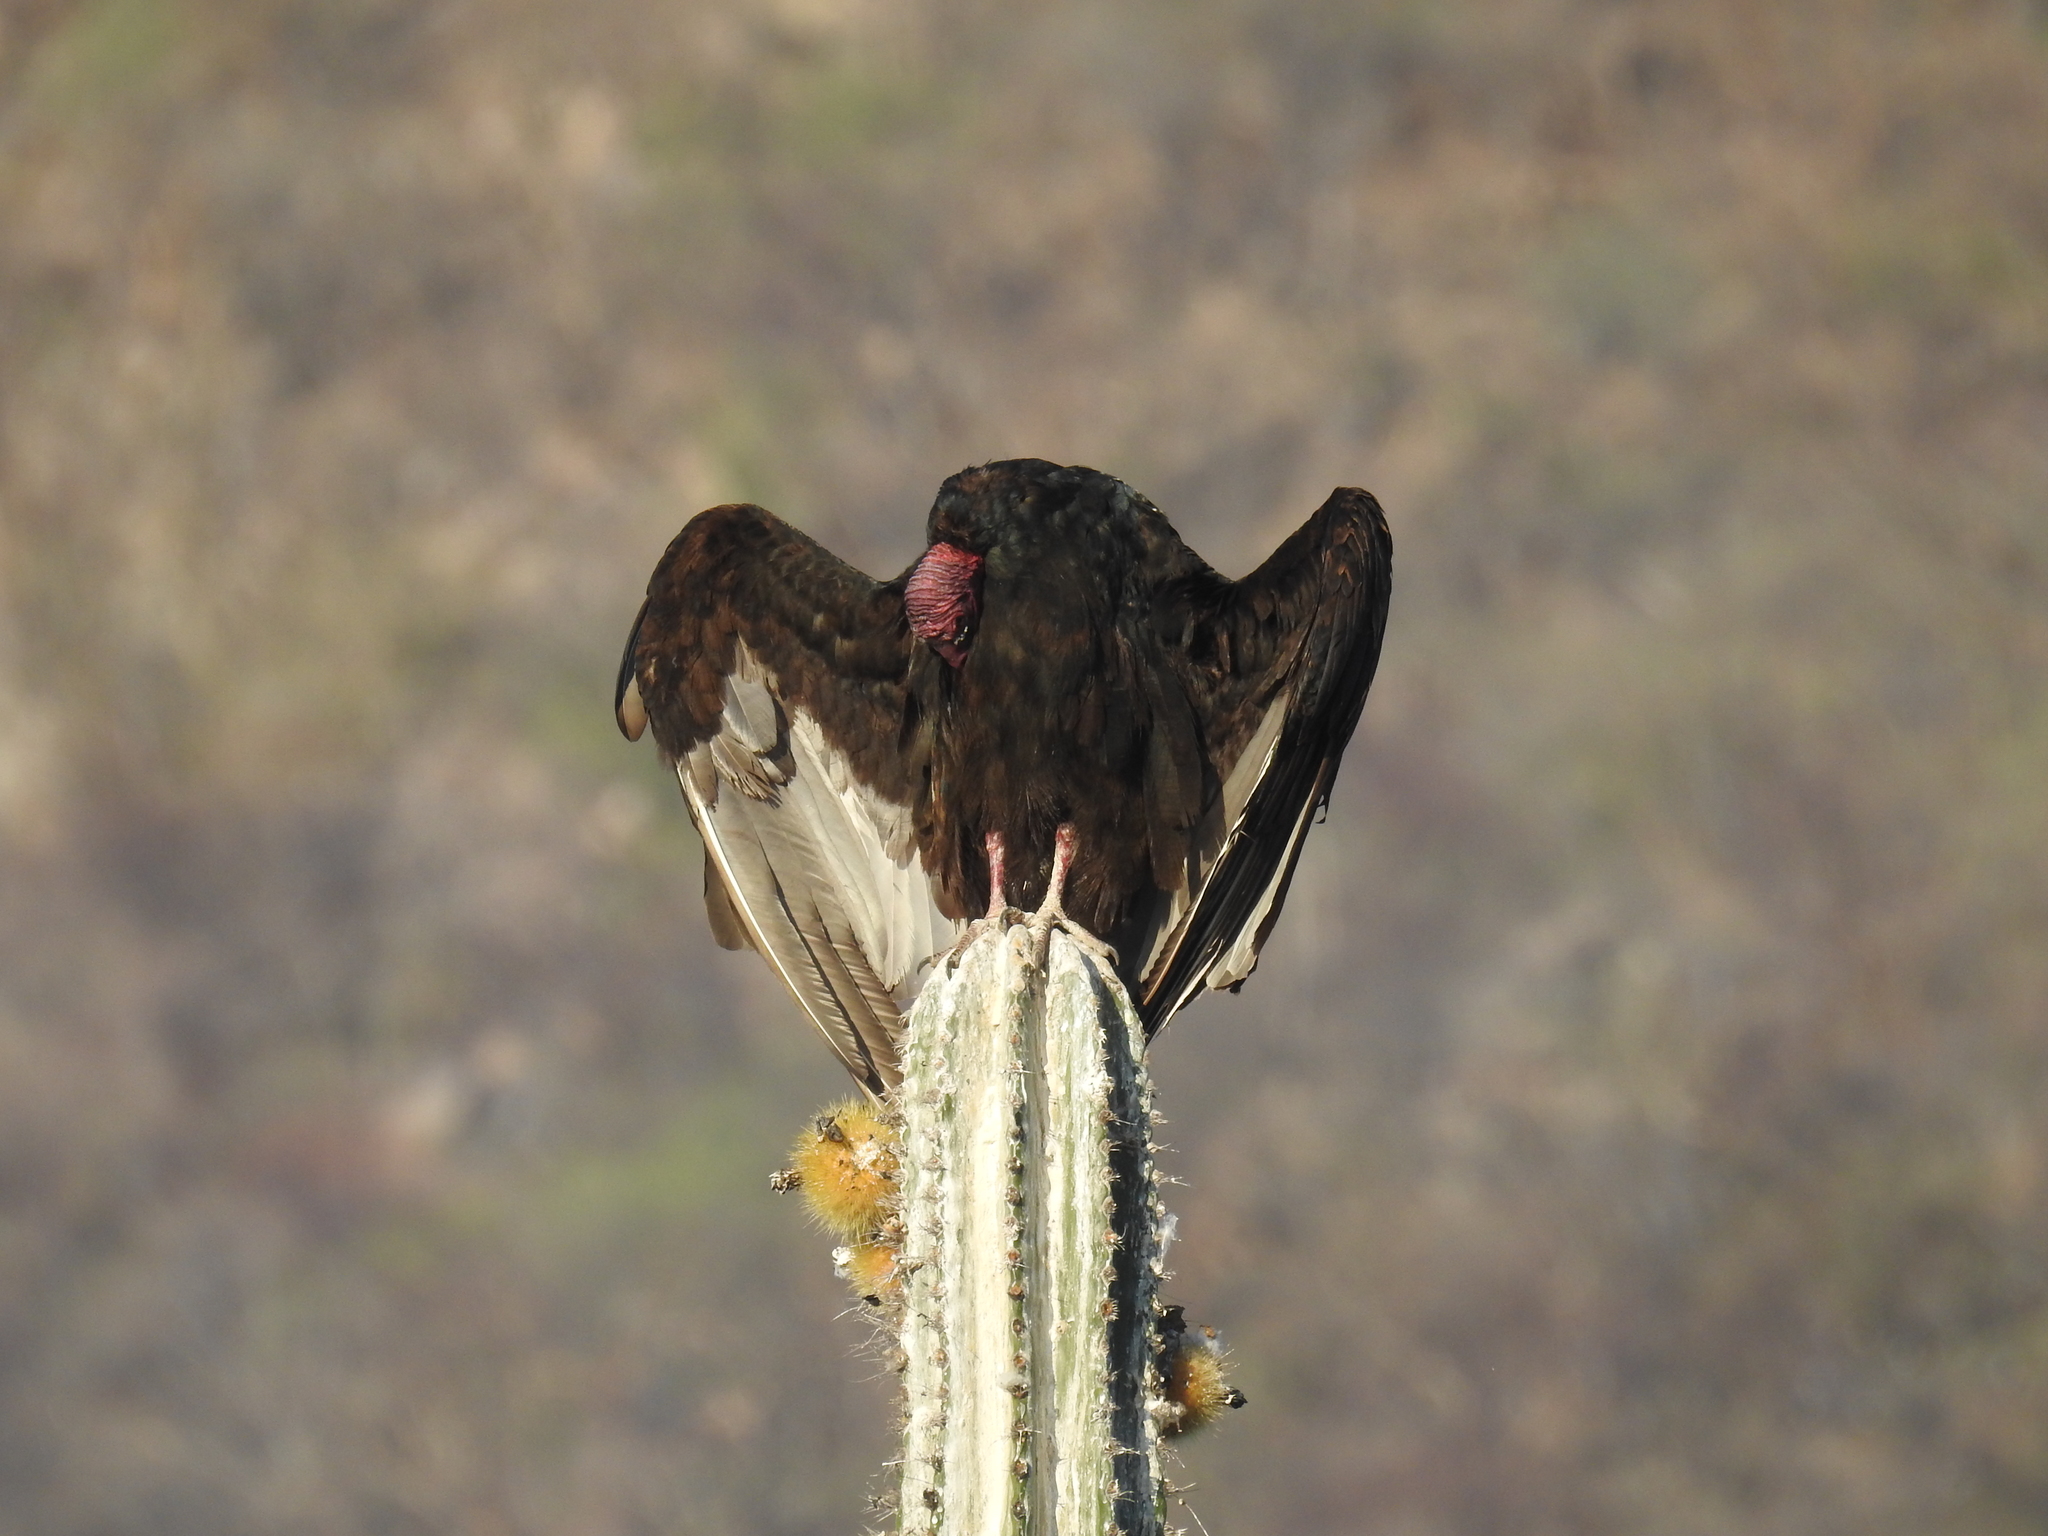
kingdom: Plantae
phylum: Tracheophyta
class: Magnoliopsida
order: Caryophyllales
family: Cactaceae
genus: Pachycereus
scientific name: Pachycereus pecten-aboriginum
